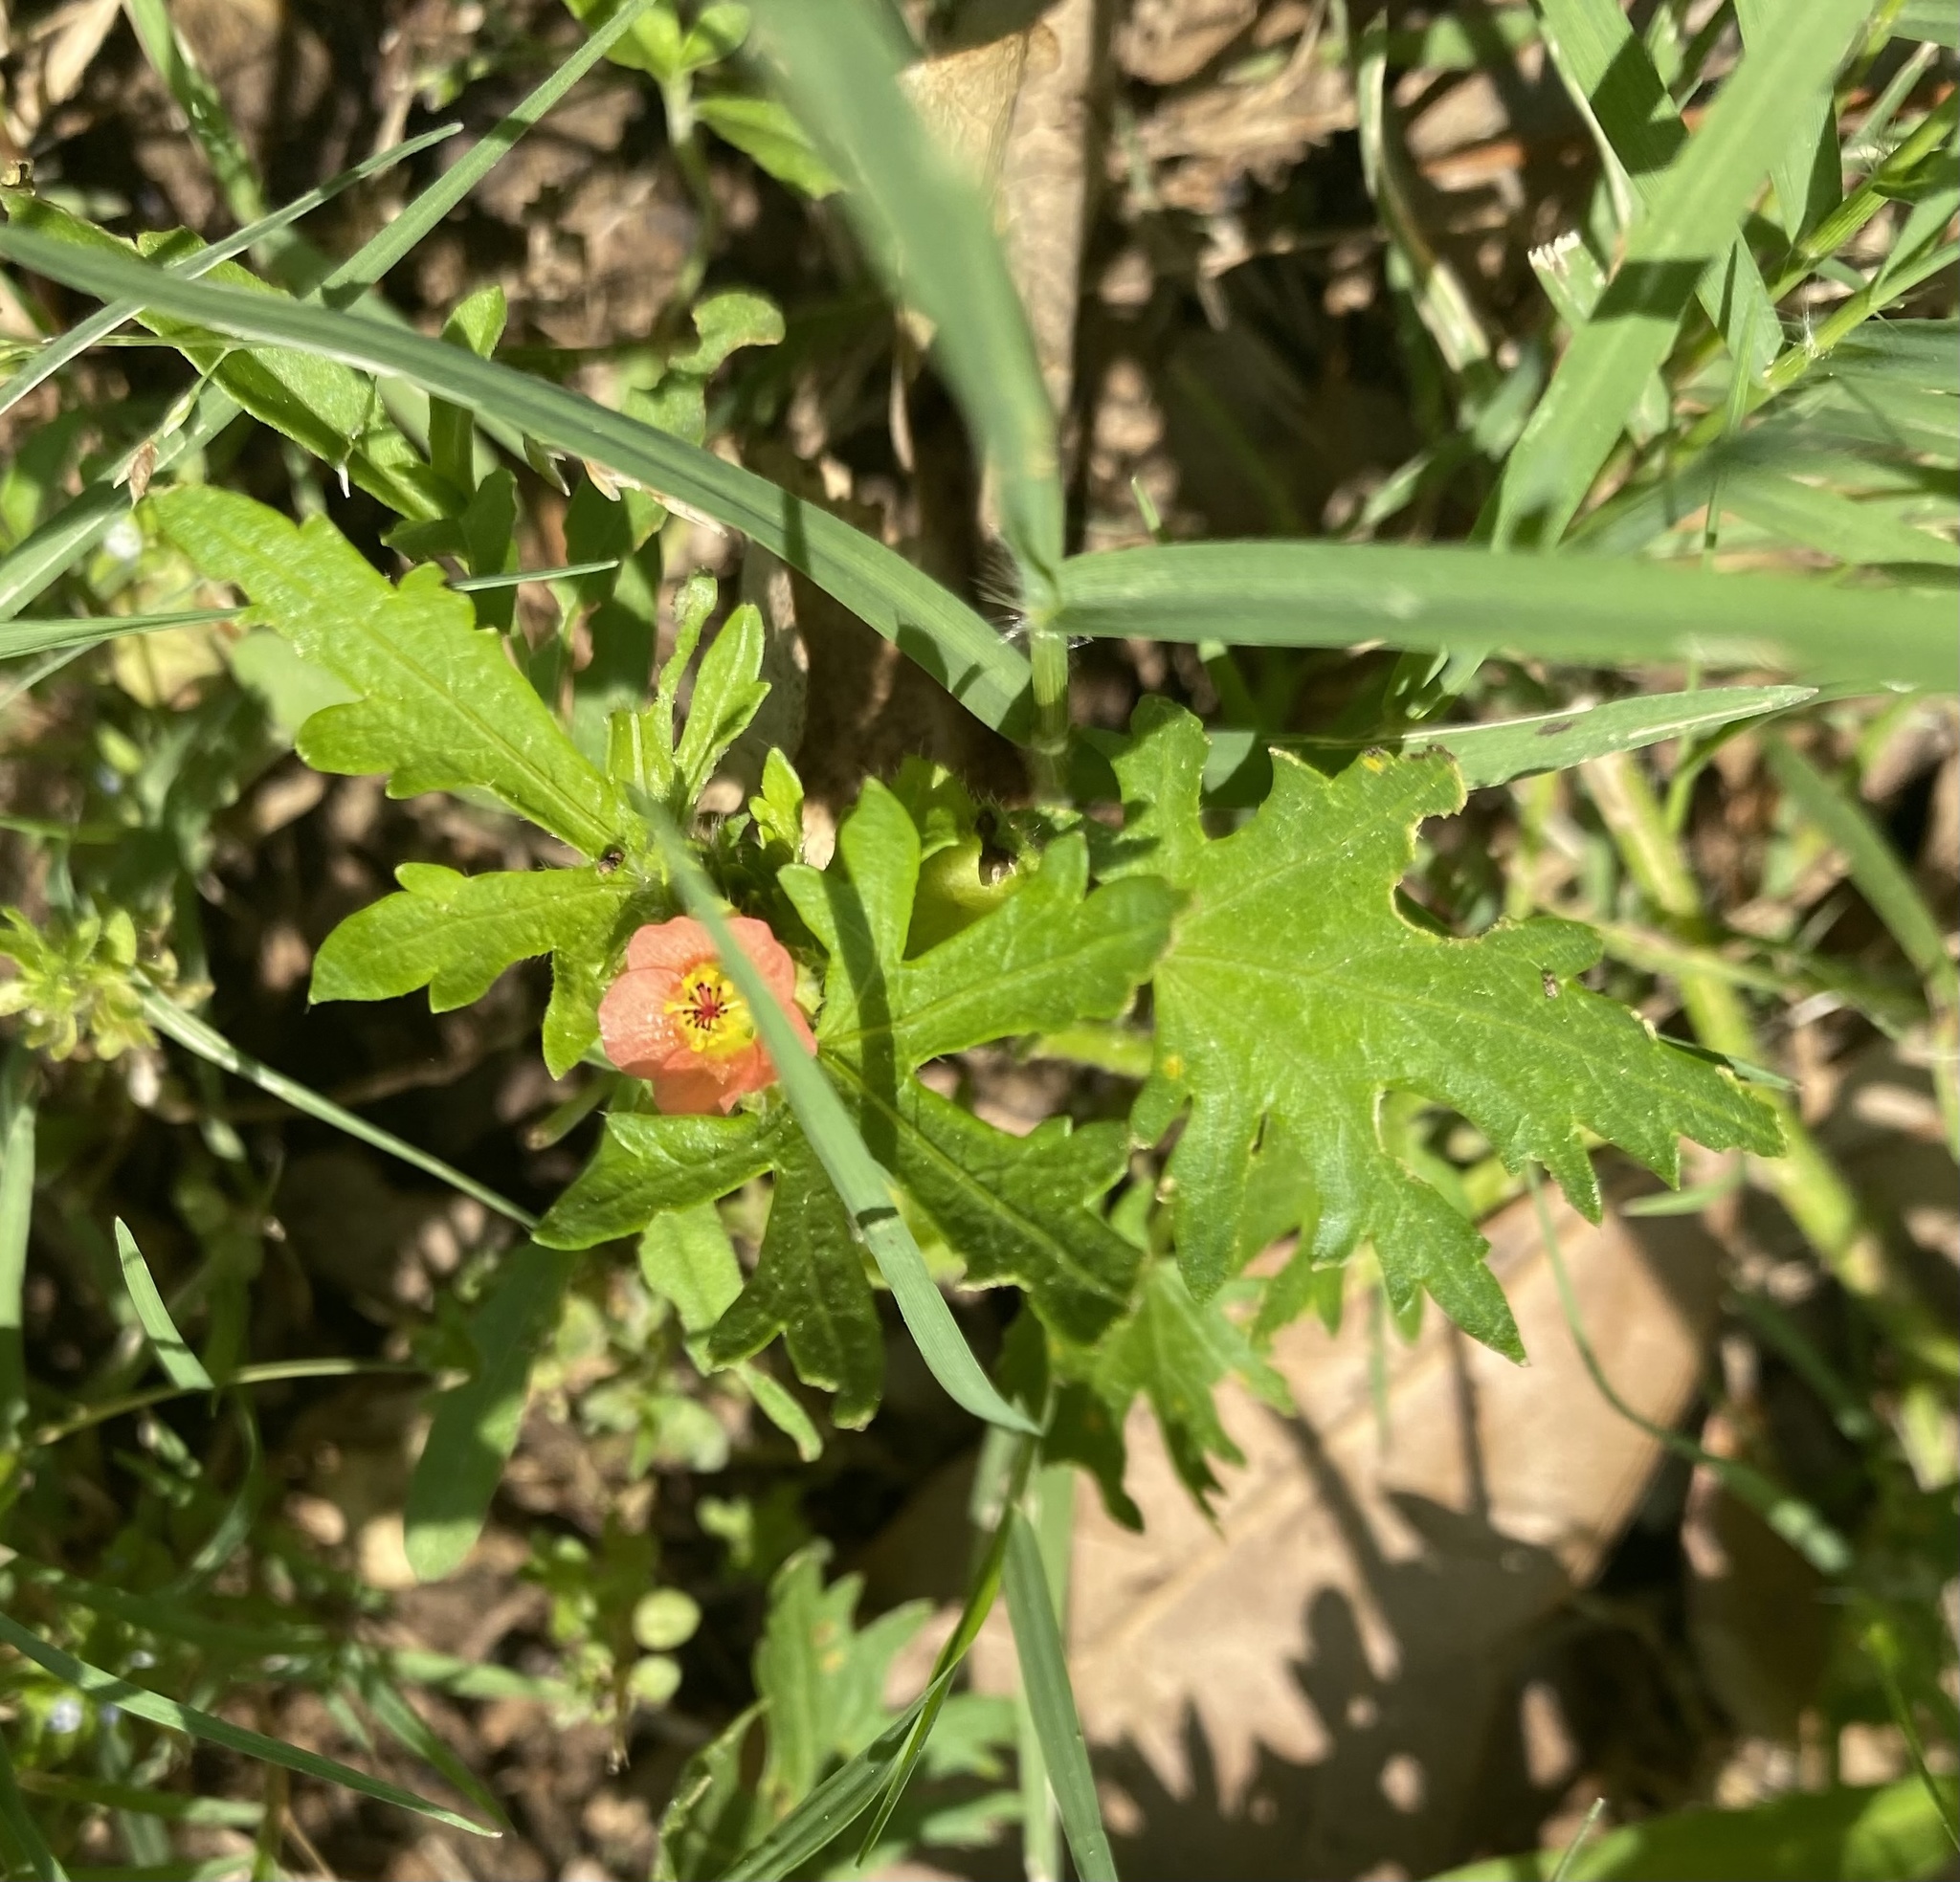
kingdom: Plantae
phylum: Tracheophyta
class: Magnoliopsida
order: Malvales
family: Malvaceae
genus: Modiola
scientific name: Modiola caroliniana
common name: Carolina bristlemallow
